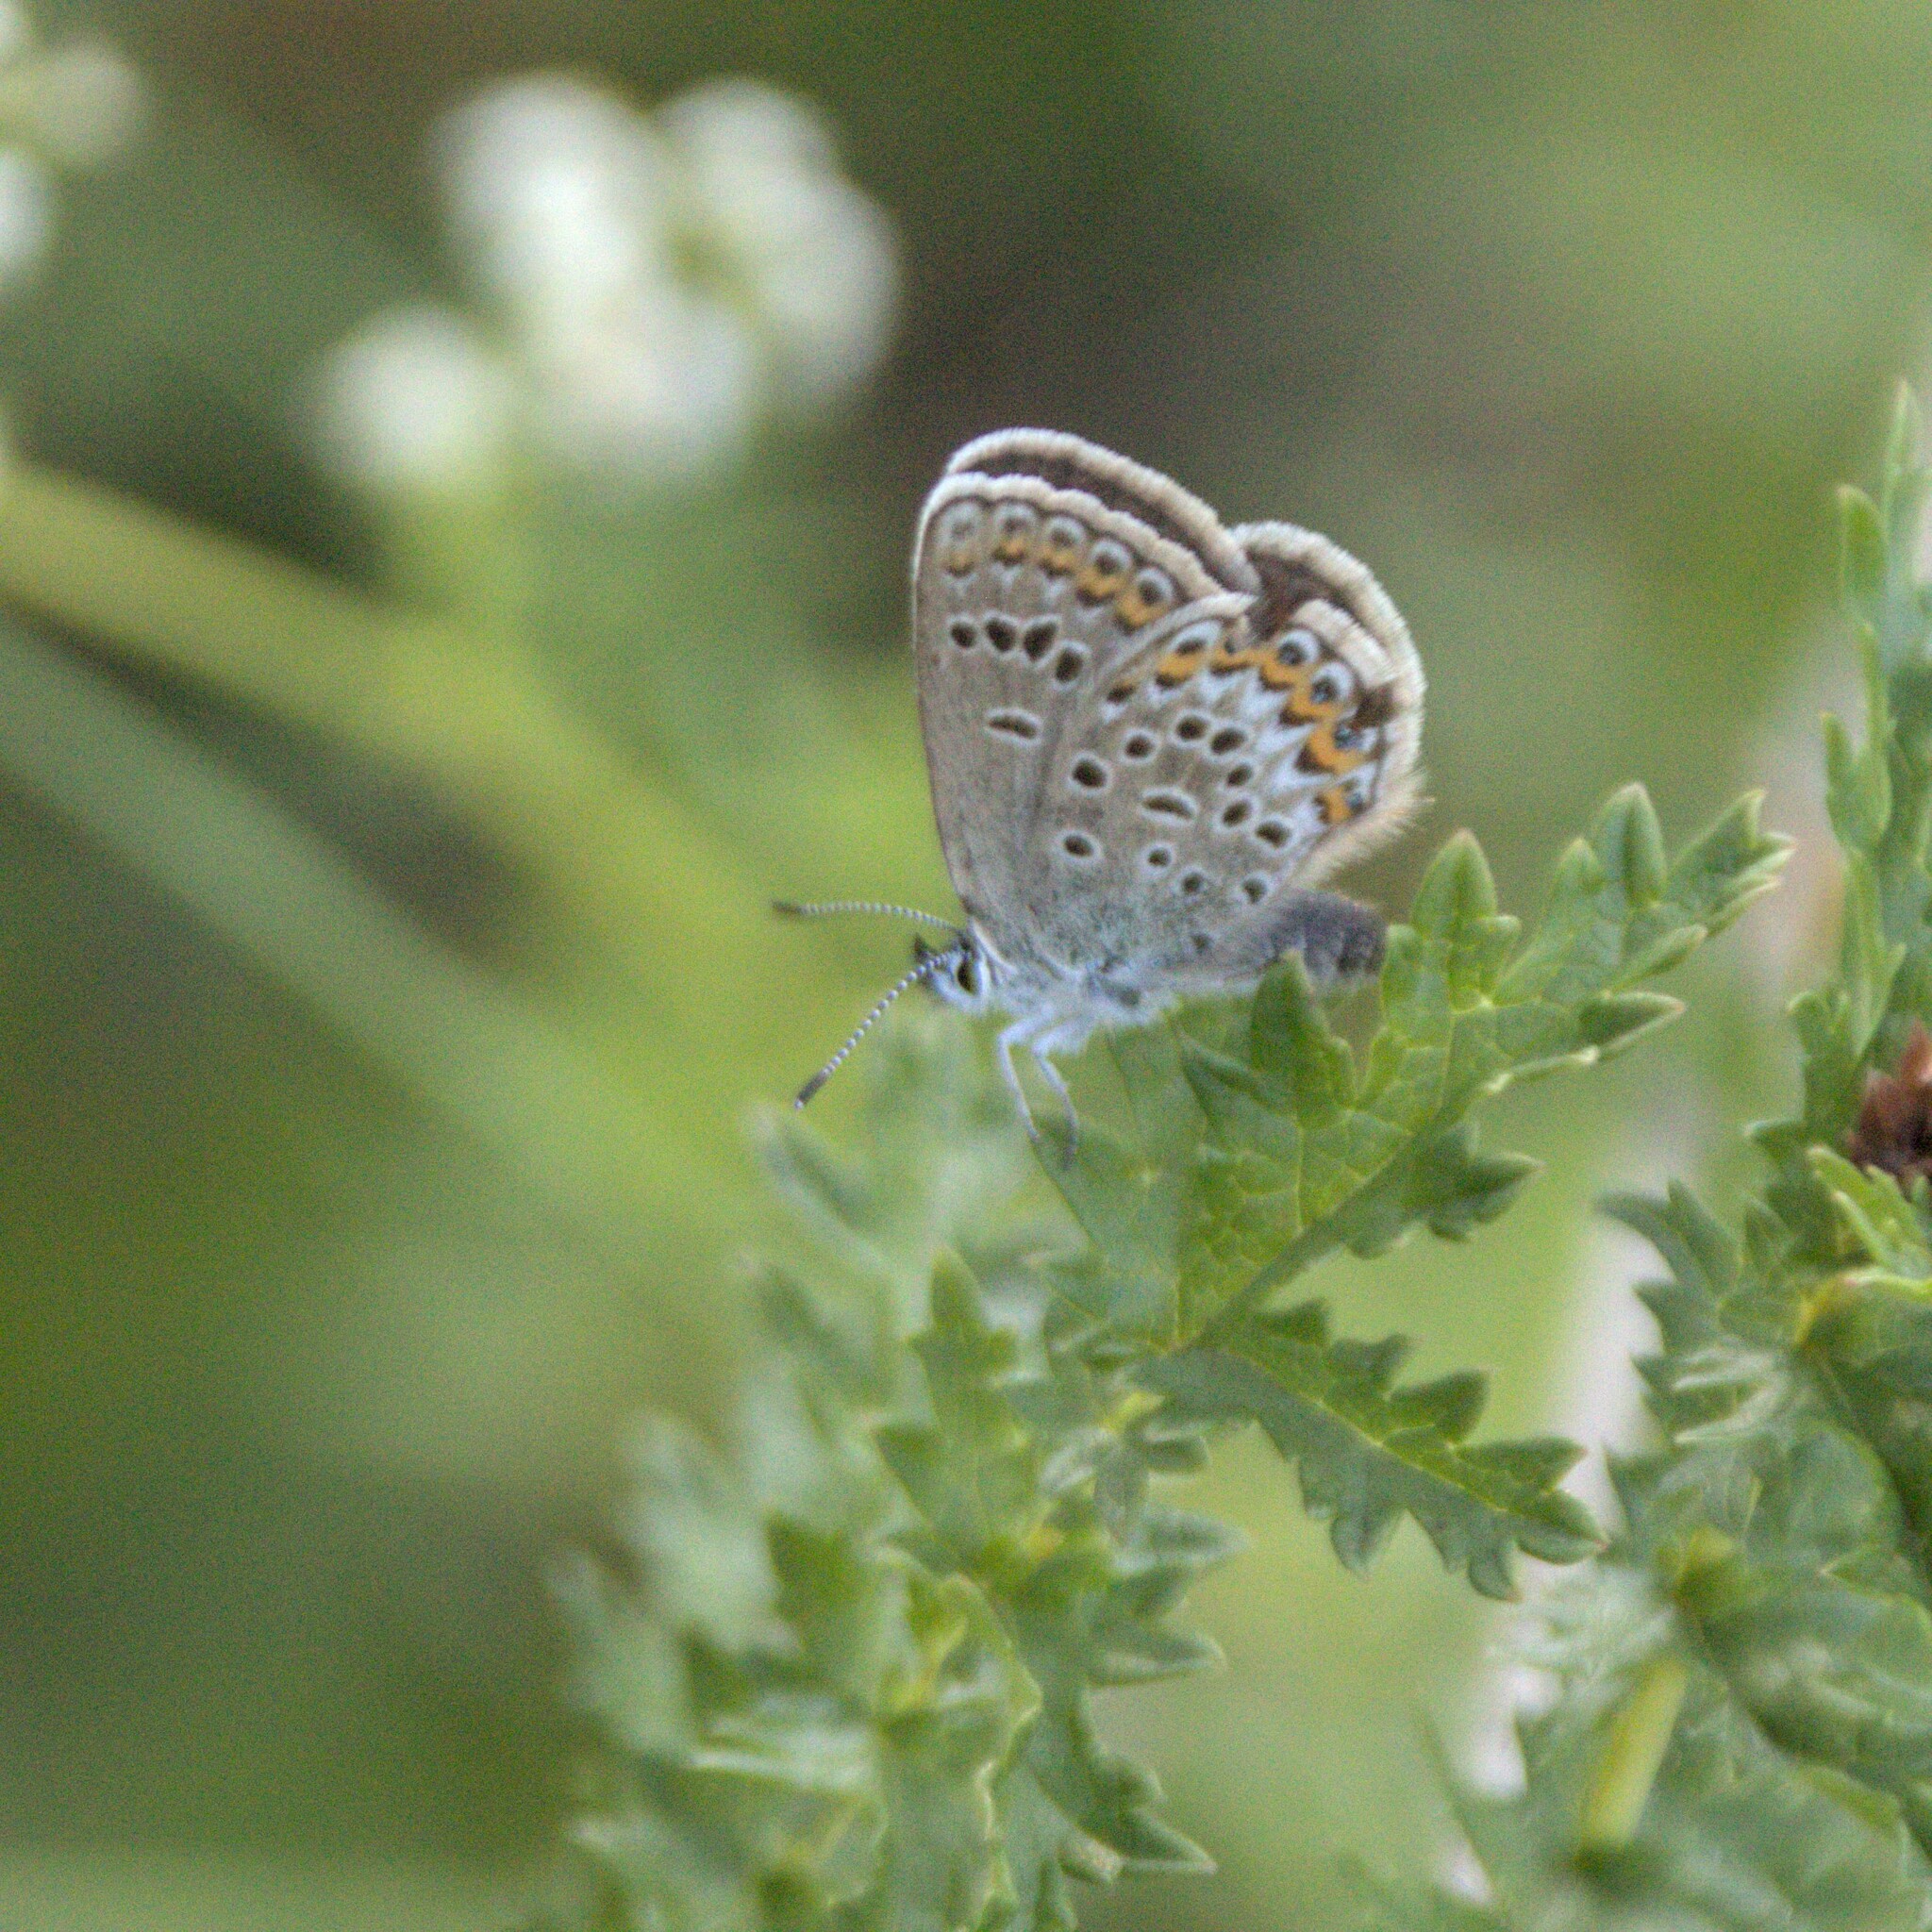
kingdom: Animalia
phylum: Arthropoda
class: Insecta
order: Lepidoptera
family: Lycaenidae
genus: Plebejus
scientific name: Plebejus argus
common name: Silver-studded blue
